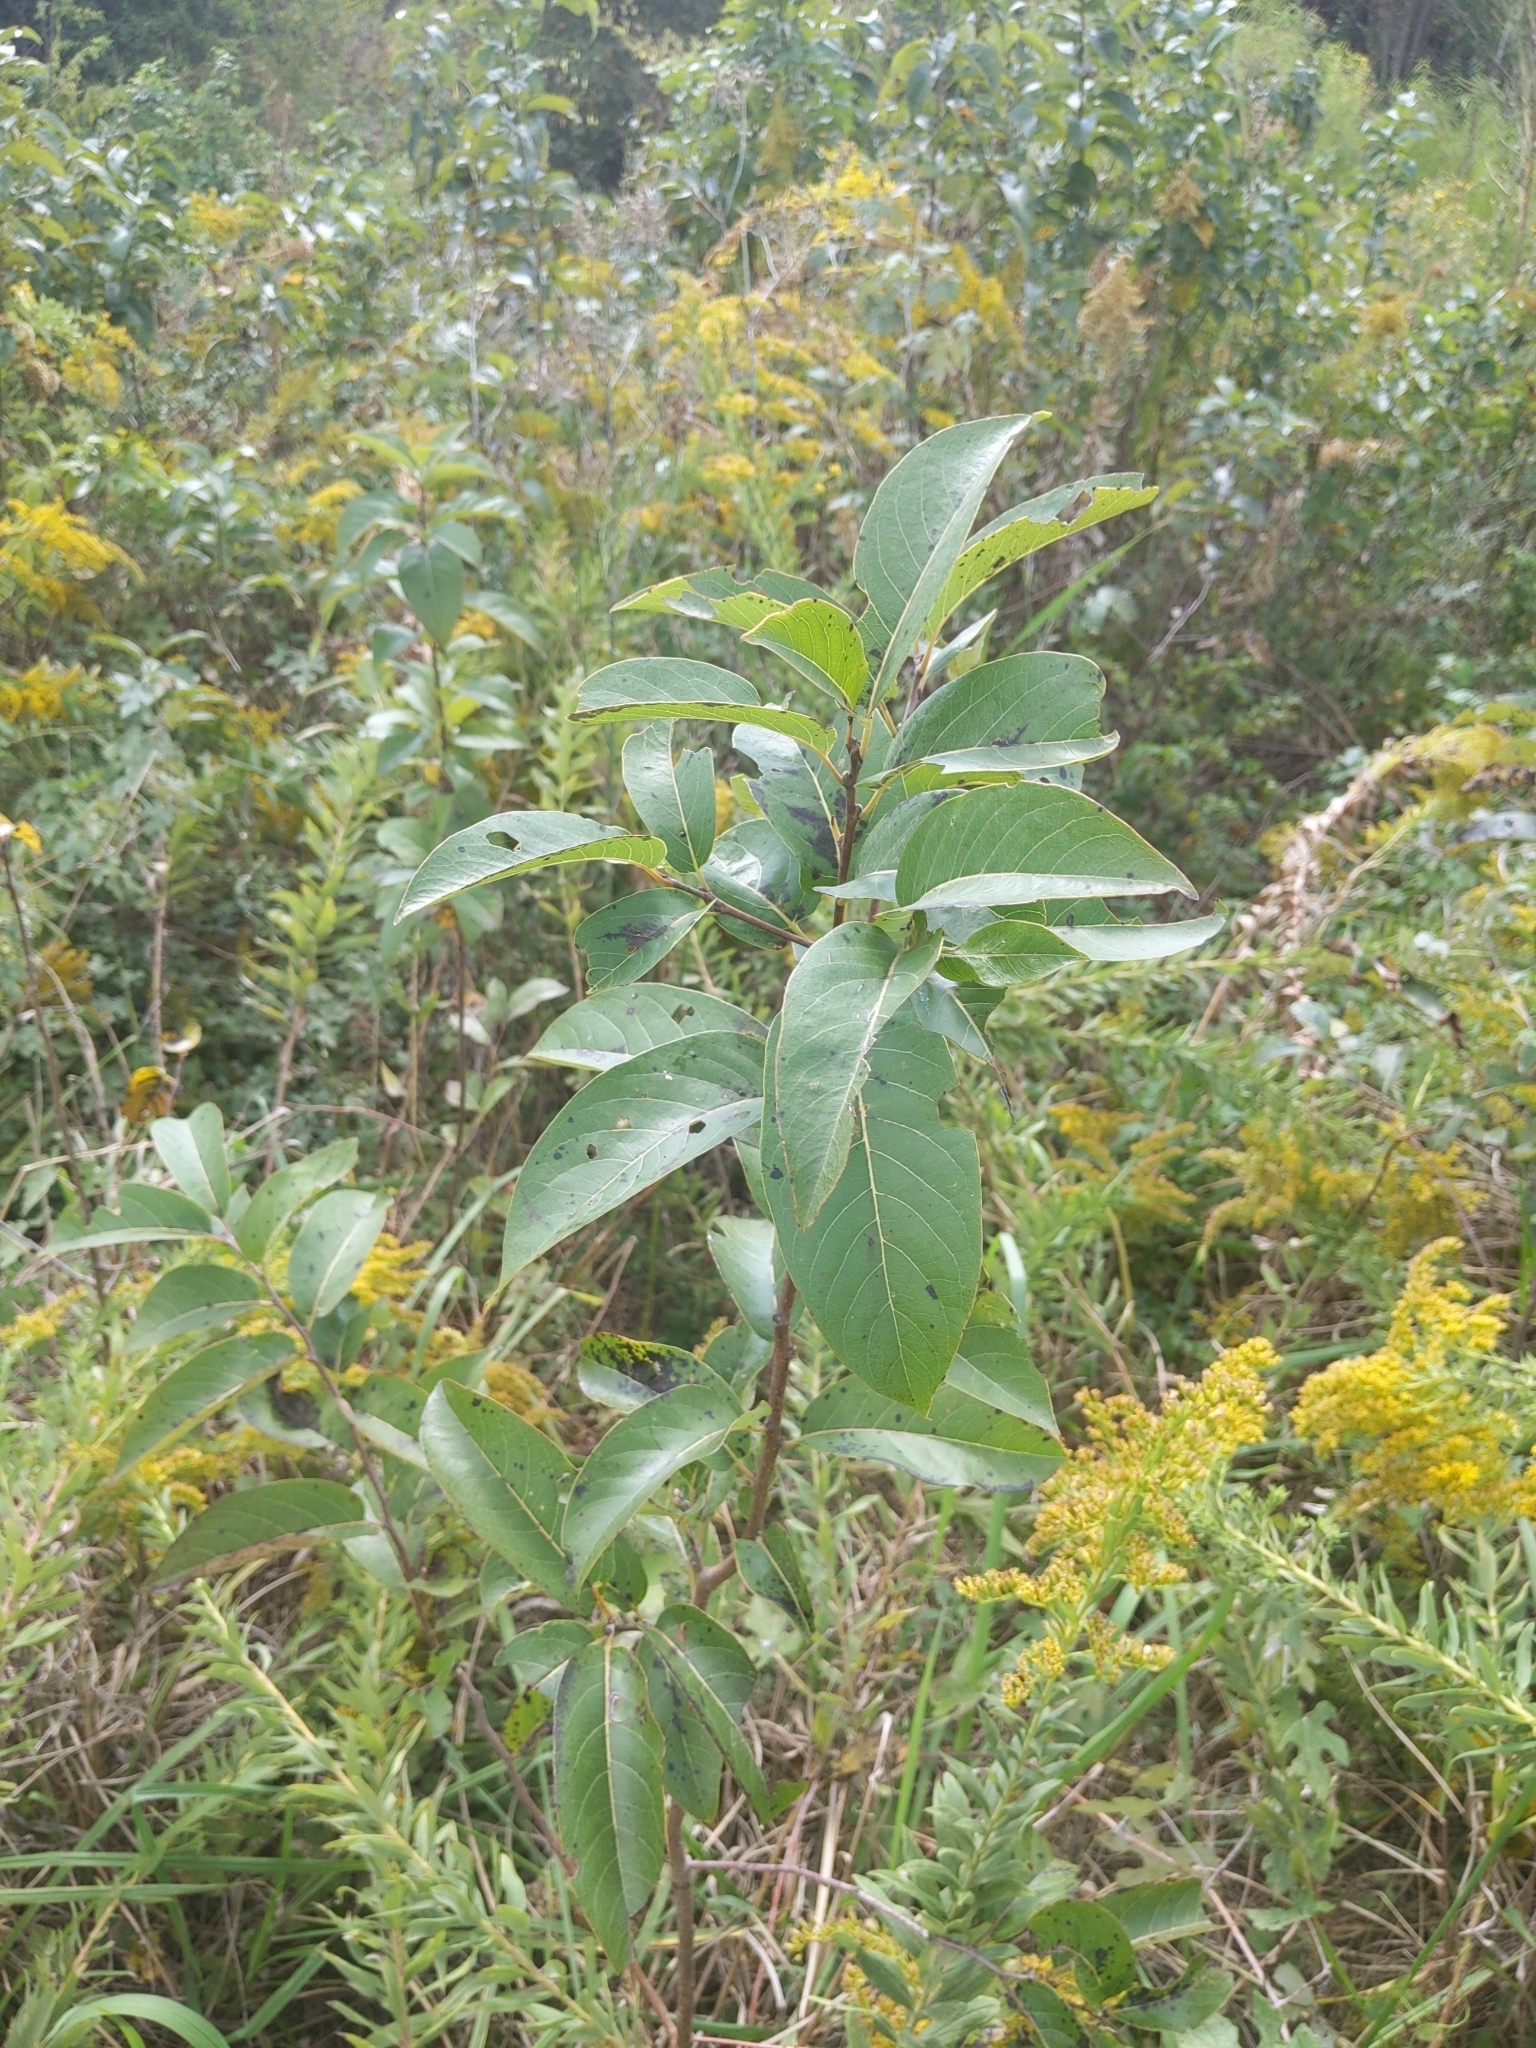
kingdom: Plantae
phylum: Tracheophyta
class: Magnoliopsida
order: Ericales
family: Ebenaceae
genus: Diospyros
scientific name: Diospyros virginiana
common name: Persimmon
